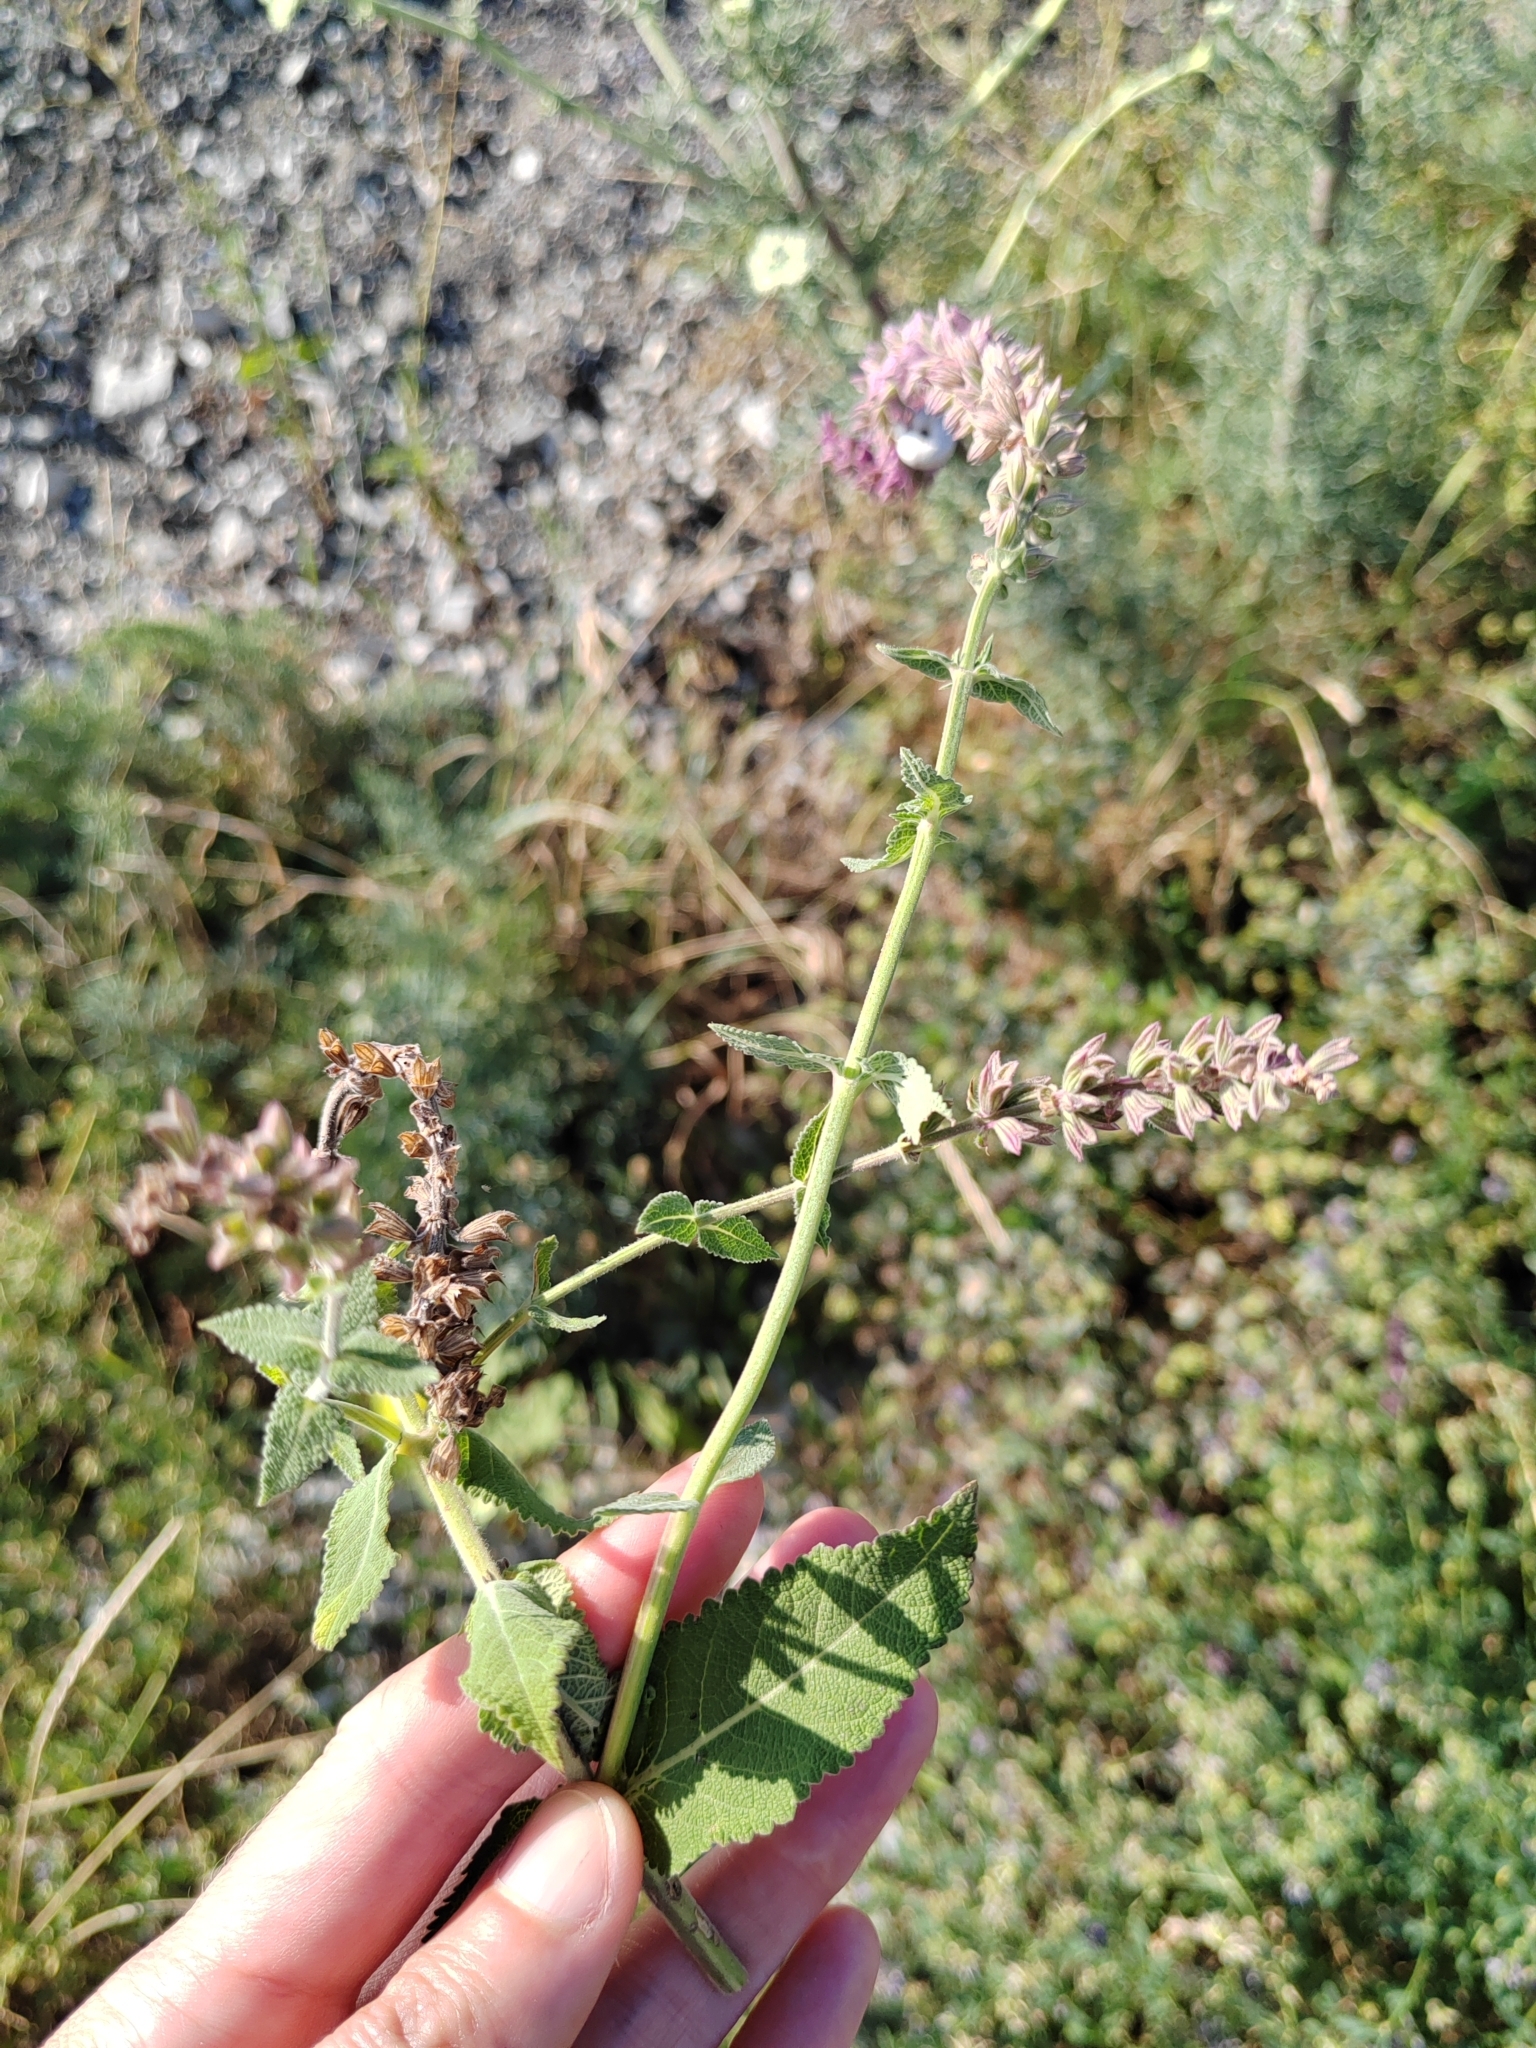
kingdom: Plantae
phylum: Tracheophyta
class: Magnoliopsida
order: Lamiales
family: Lamiaceae
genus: Salvia
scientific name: Salvia nemorosa
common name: Balkan clary
